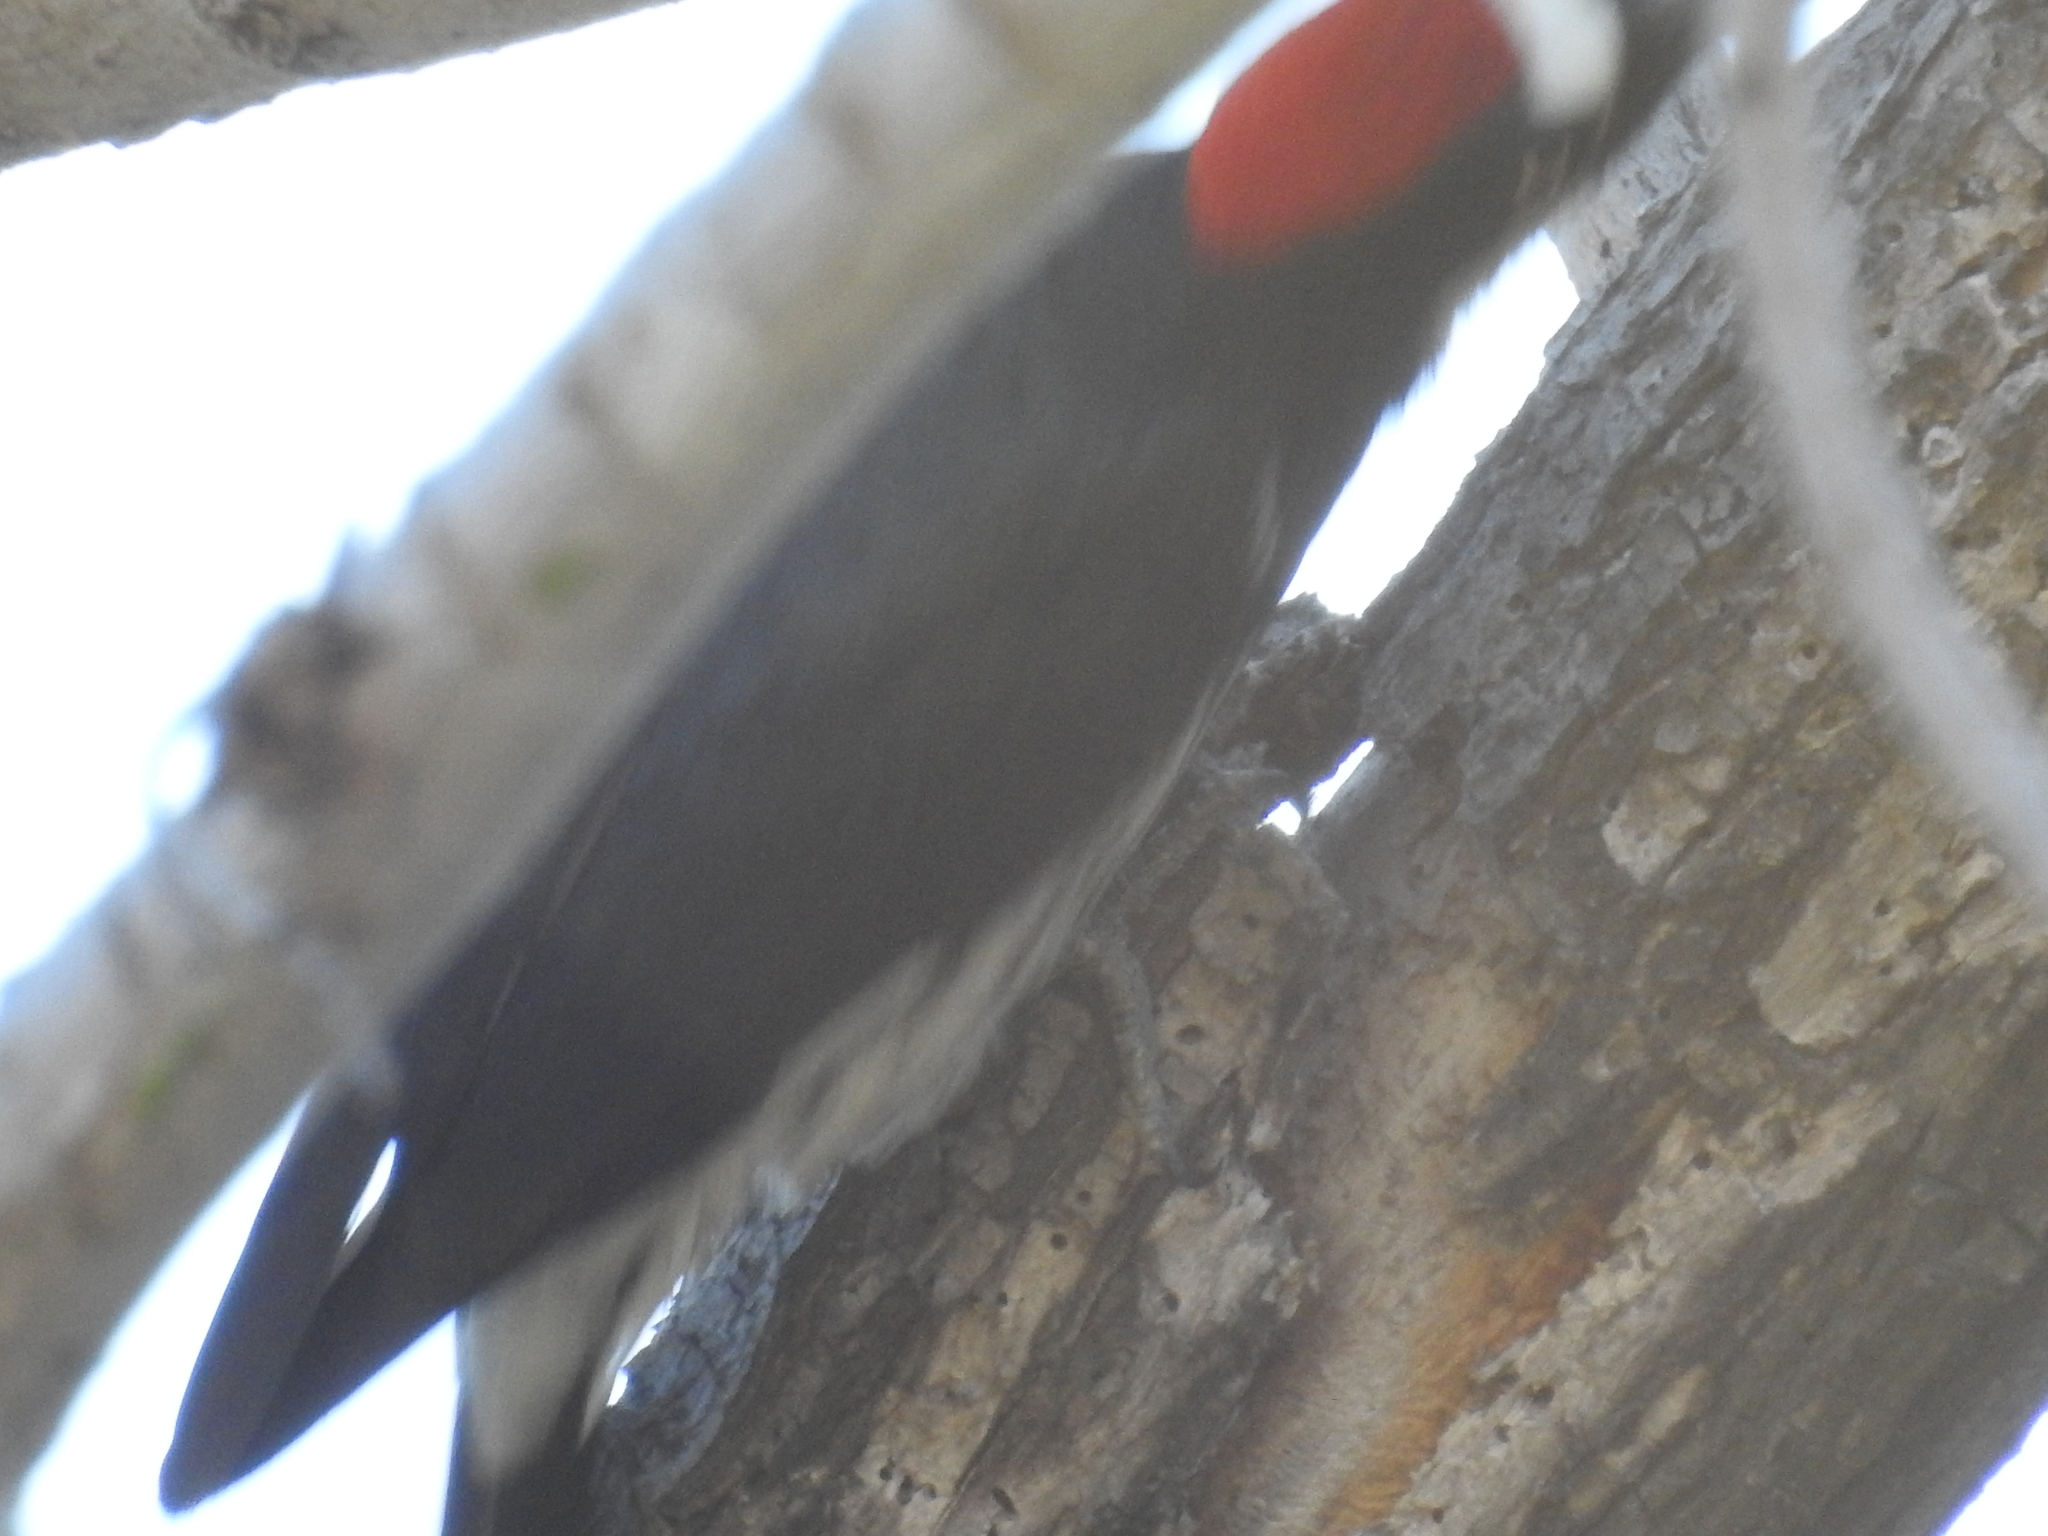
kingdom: Animalia
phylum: Chordata
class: Aves
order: Piciformes
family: Picidae
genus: Melanerpes
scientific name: Melanerpes formicivorus
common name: Acorn woodpecker
